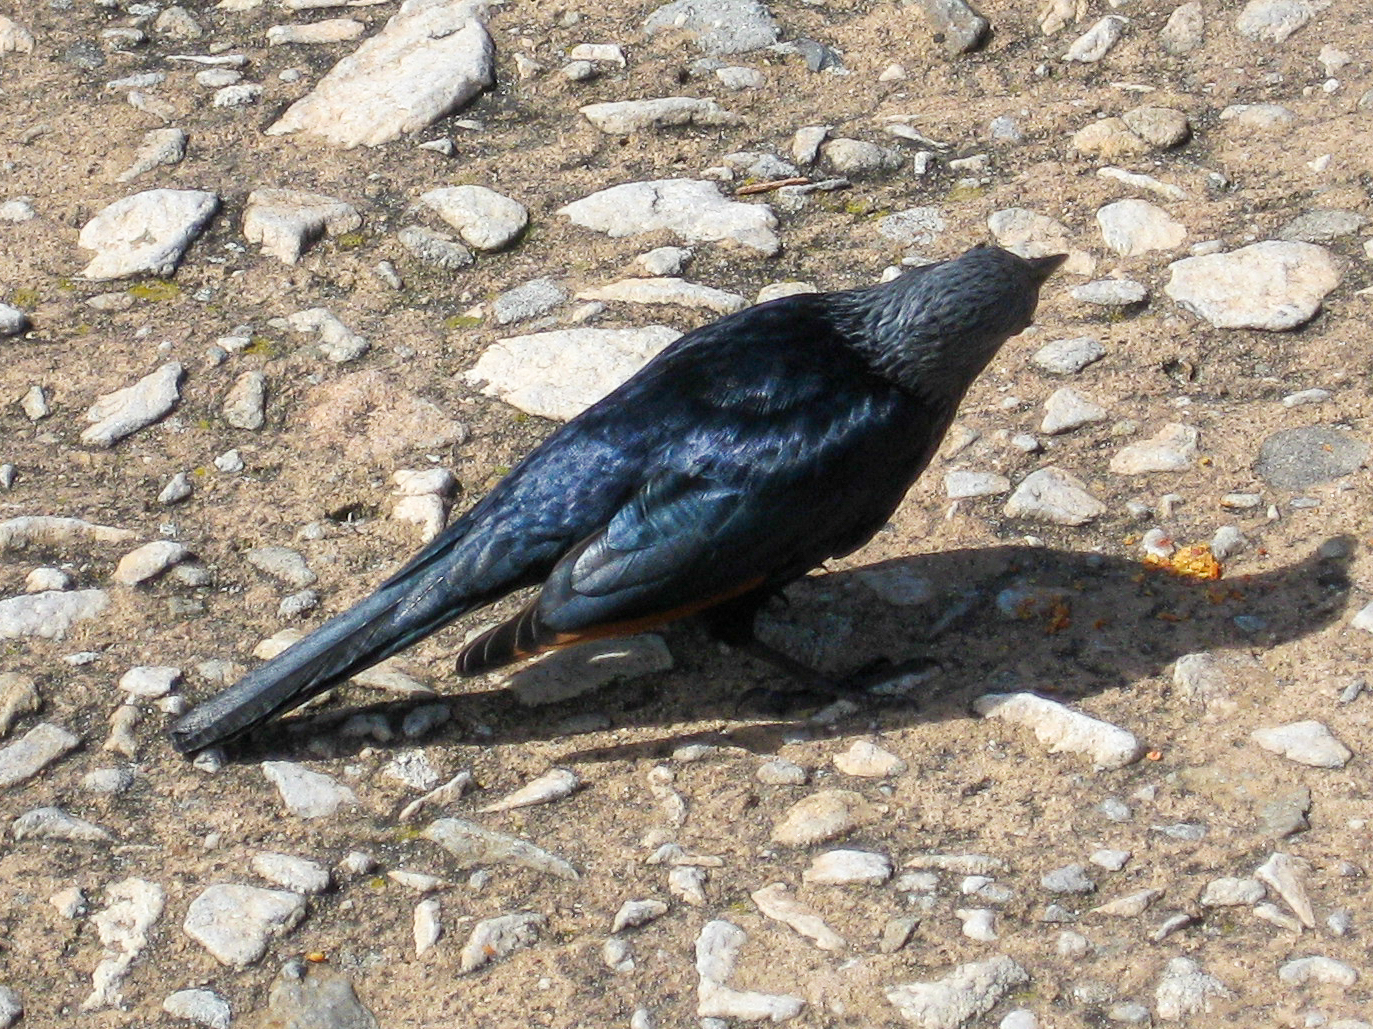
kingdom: Animalia
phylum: Chordata
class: Aves
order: Passeriformes
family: Sturnidae
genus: Onychognathus
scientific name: Onychognathus morio
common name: Red-winged starling
